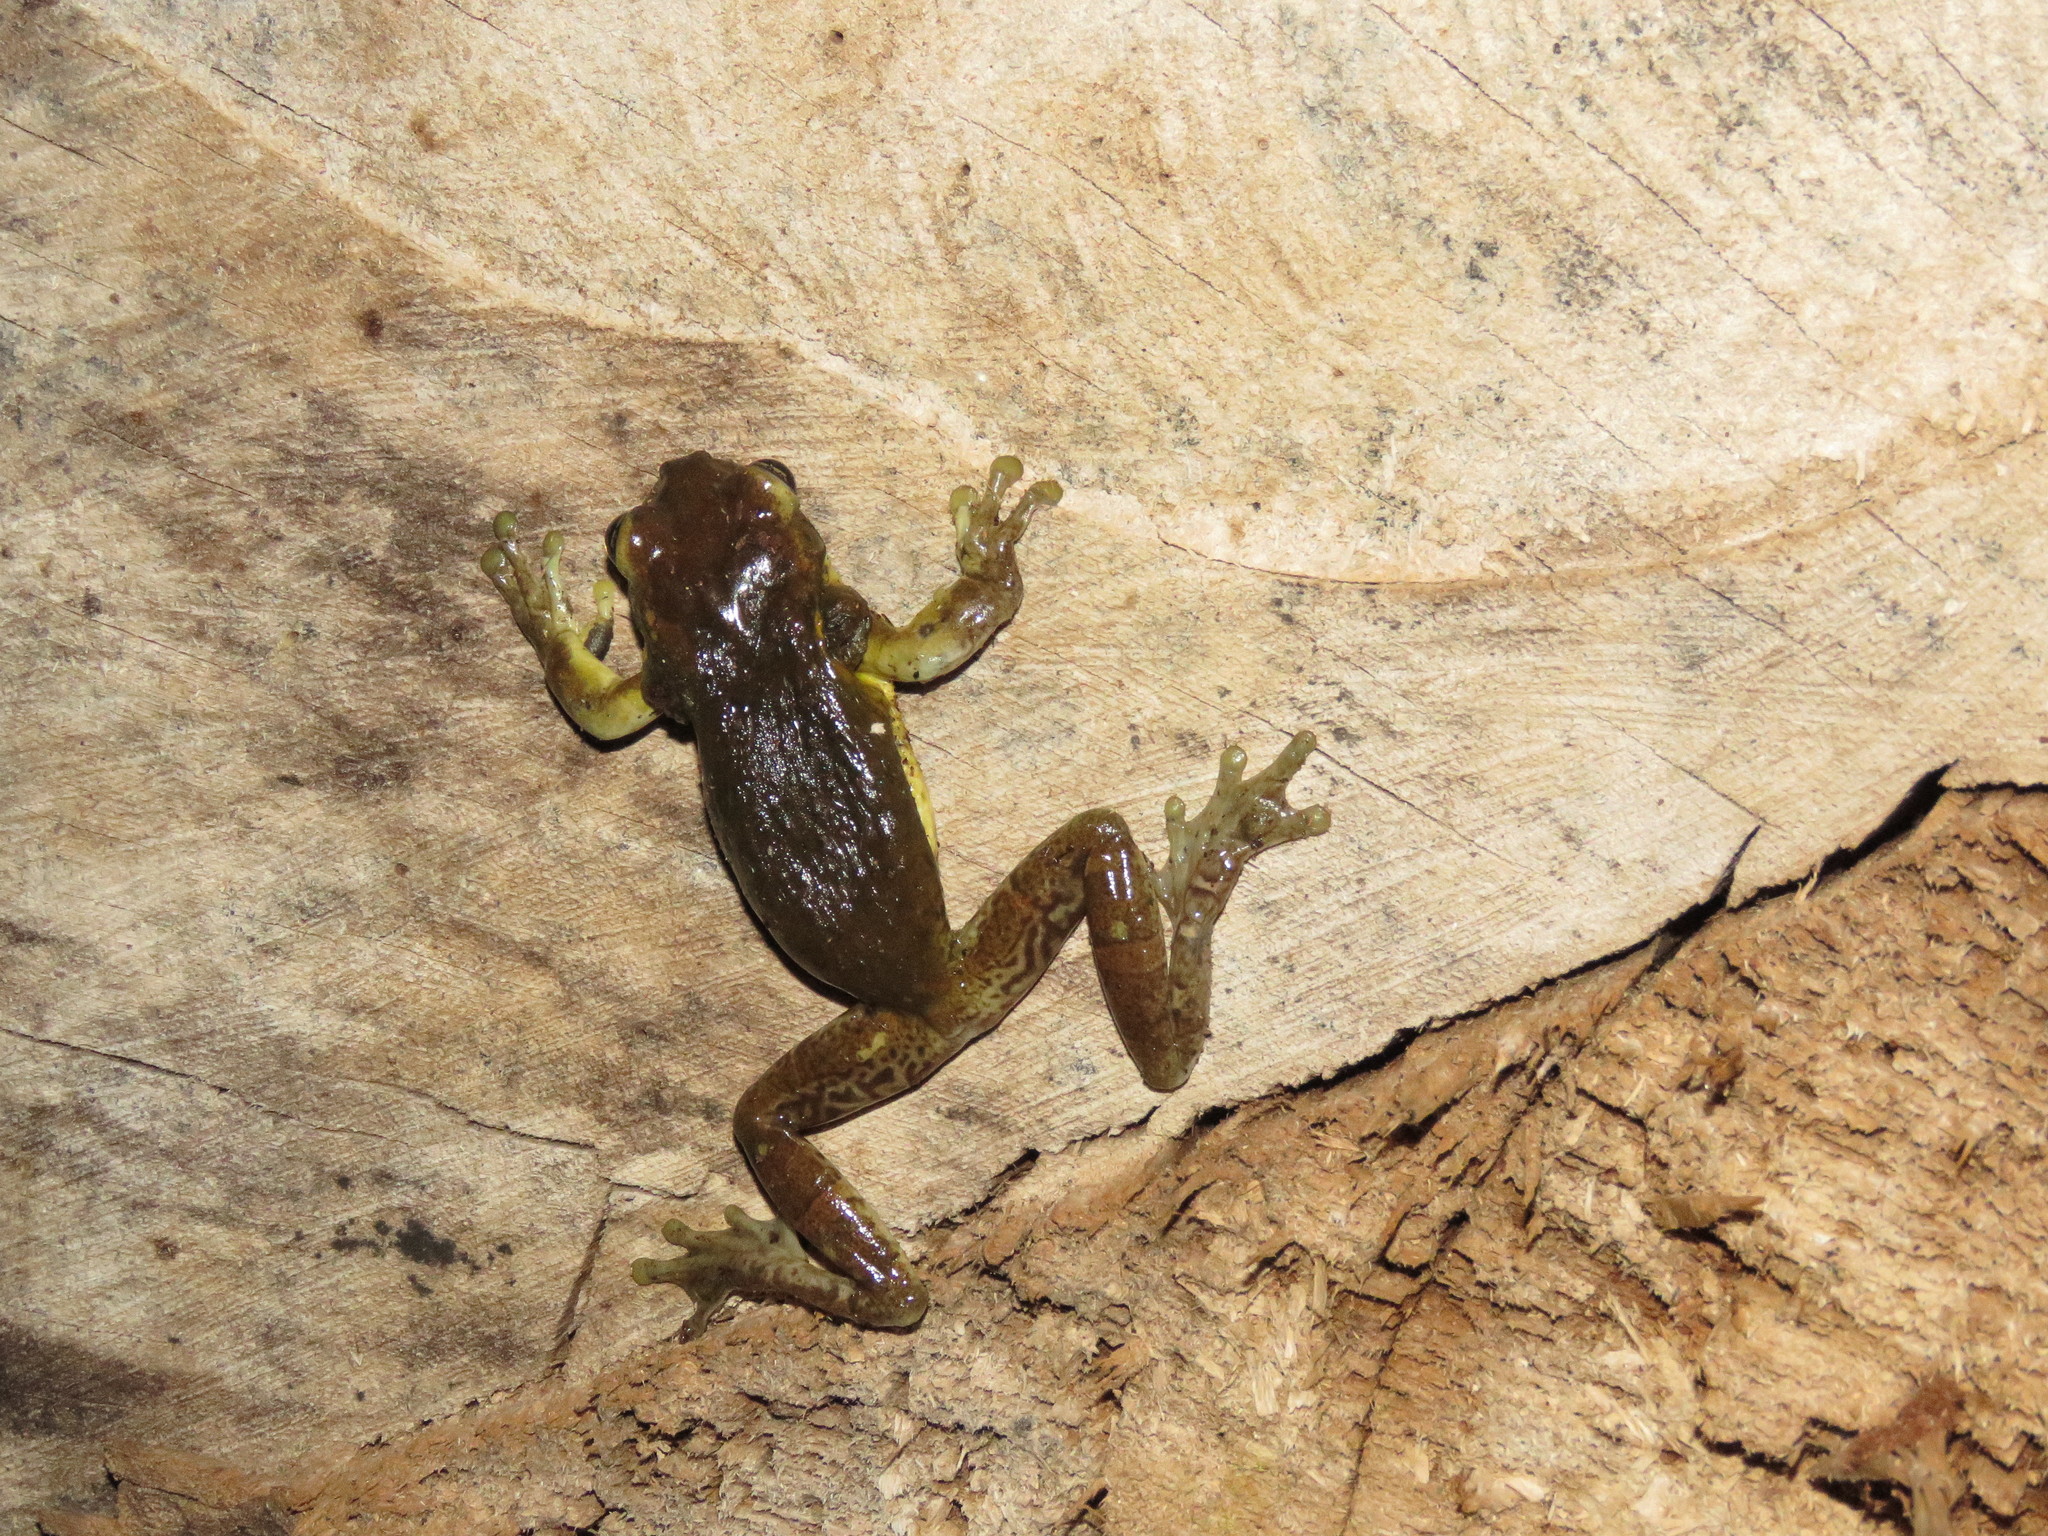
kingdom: Animalia
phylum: Chordata
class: Amphibia
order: Anura
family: Hylidae
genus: Trachycephalus
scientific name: Trachycephalus coriaceus
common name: Surinam casque-heded treefrog
